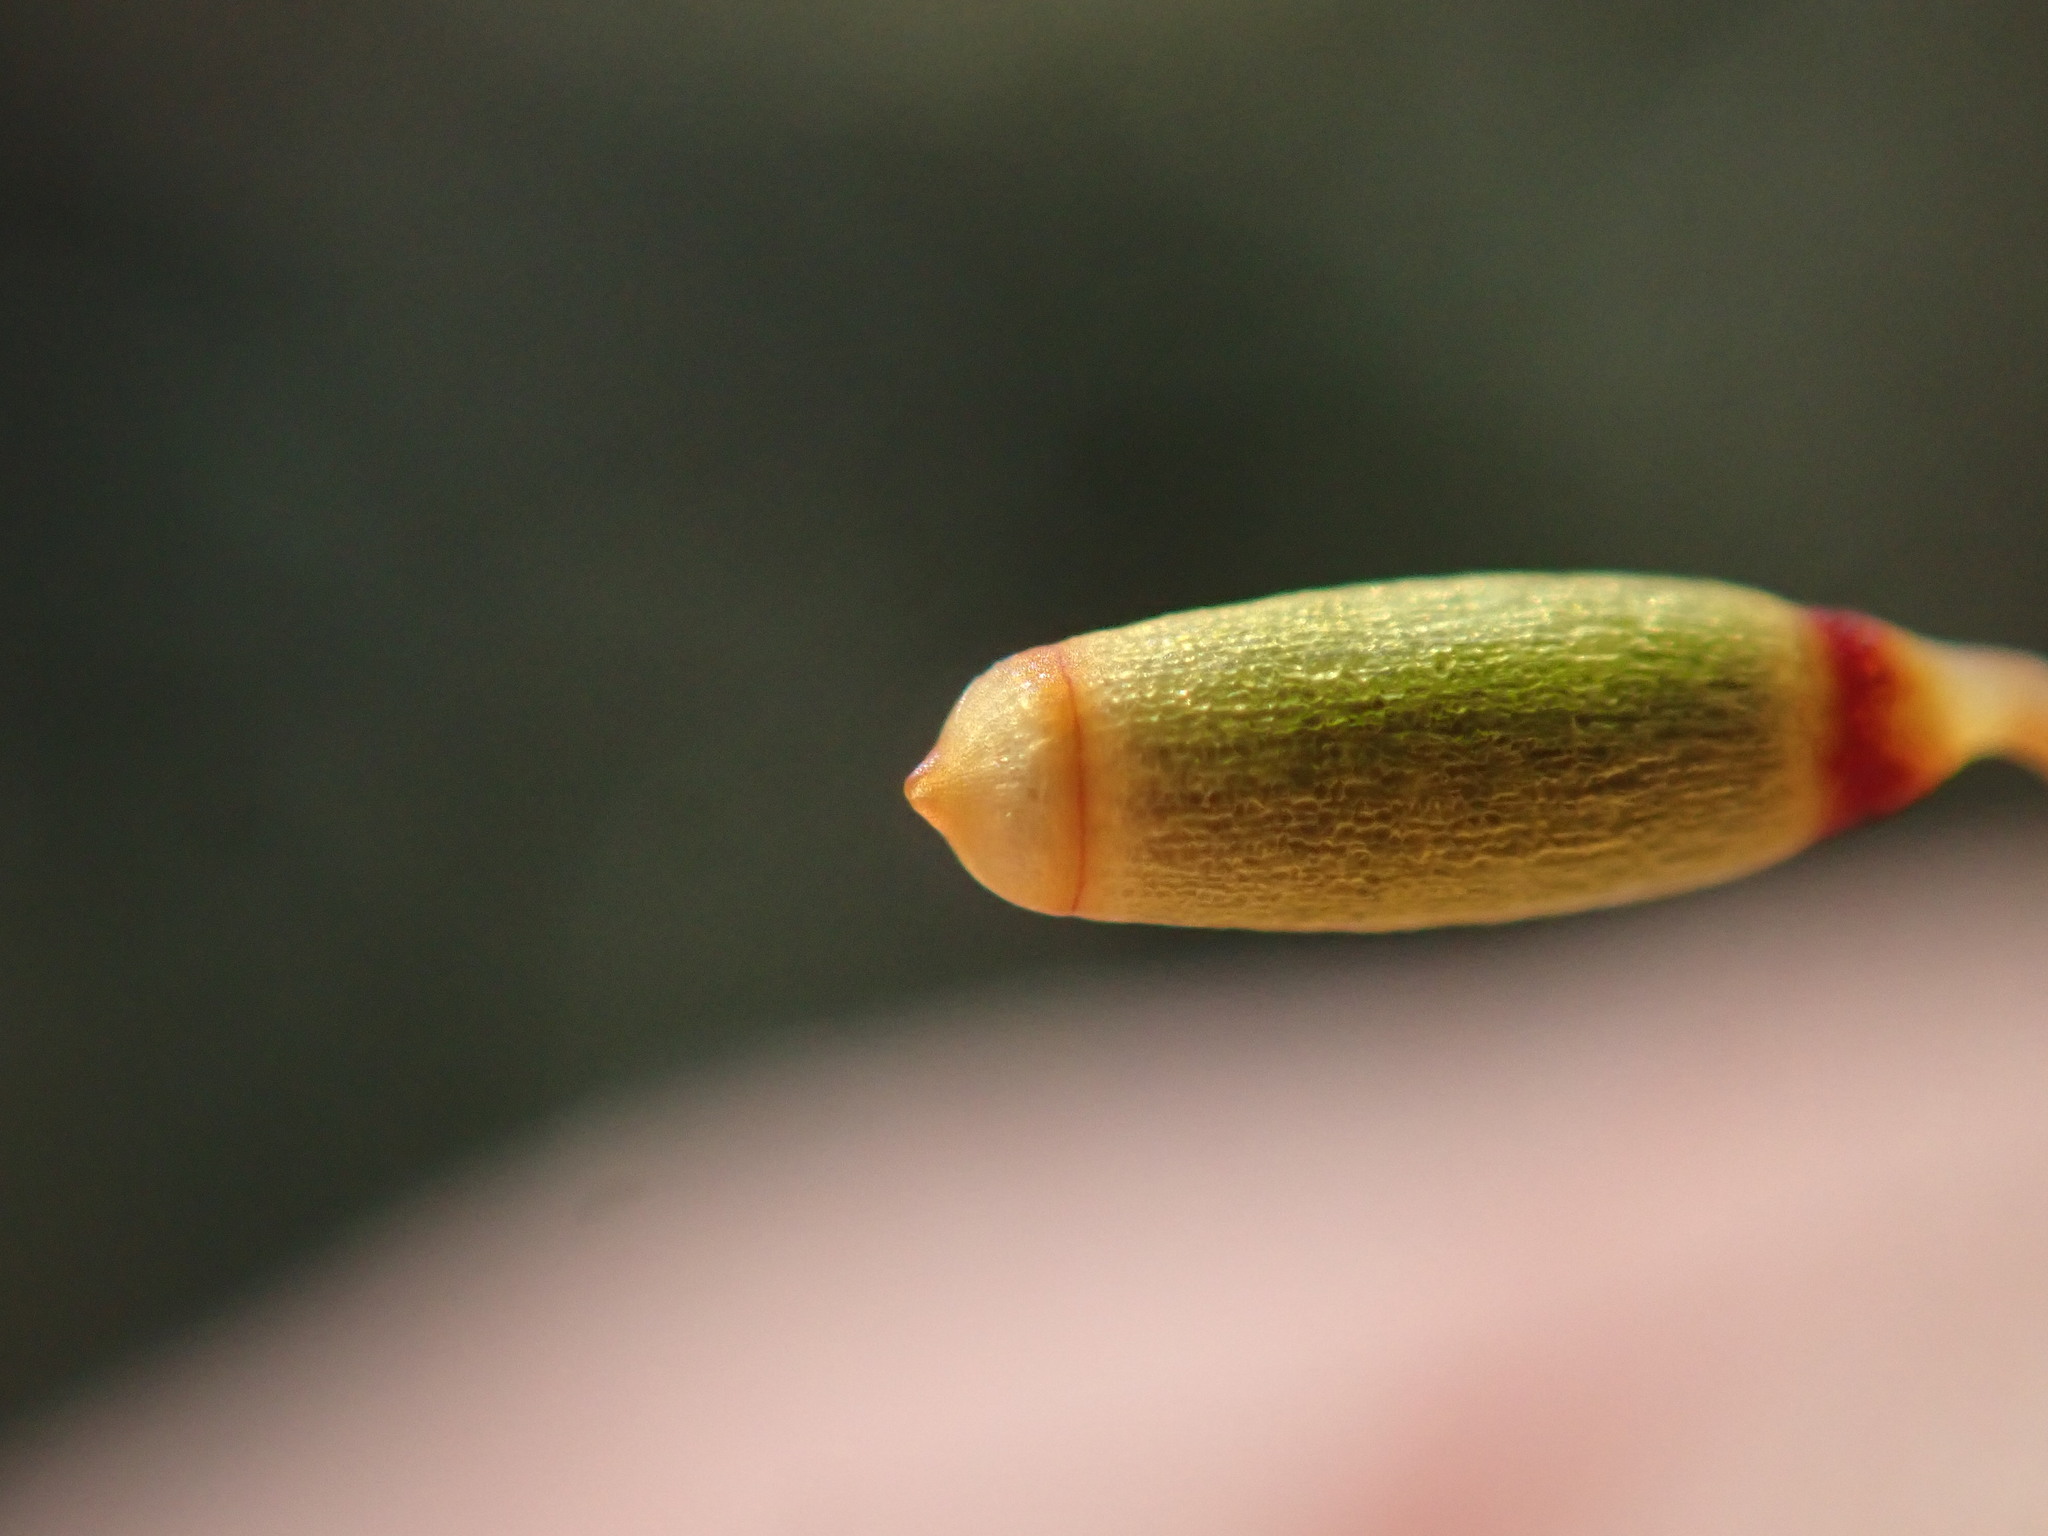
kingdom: Plantae
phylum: Bryophyta
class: Bryopsida
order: Bryales
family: Mniaceae
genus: Plagiomnium
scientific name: Plagiomnium venustum
